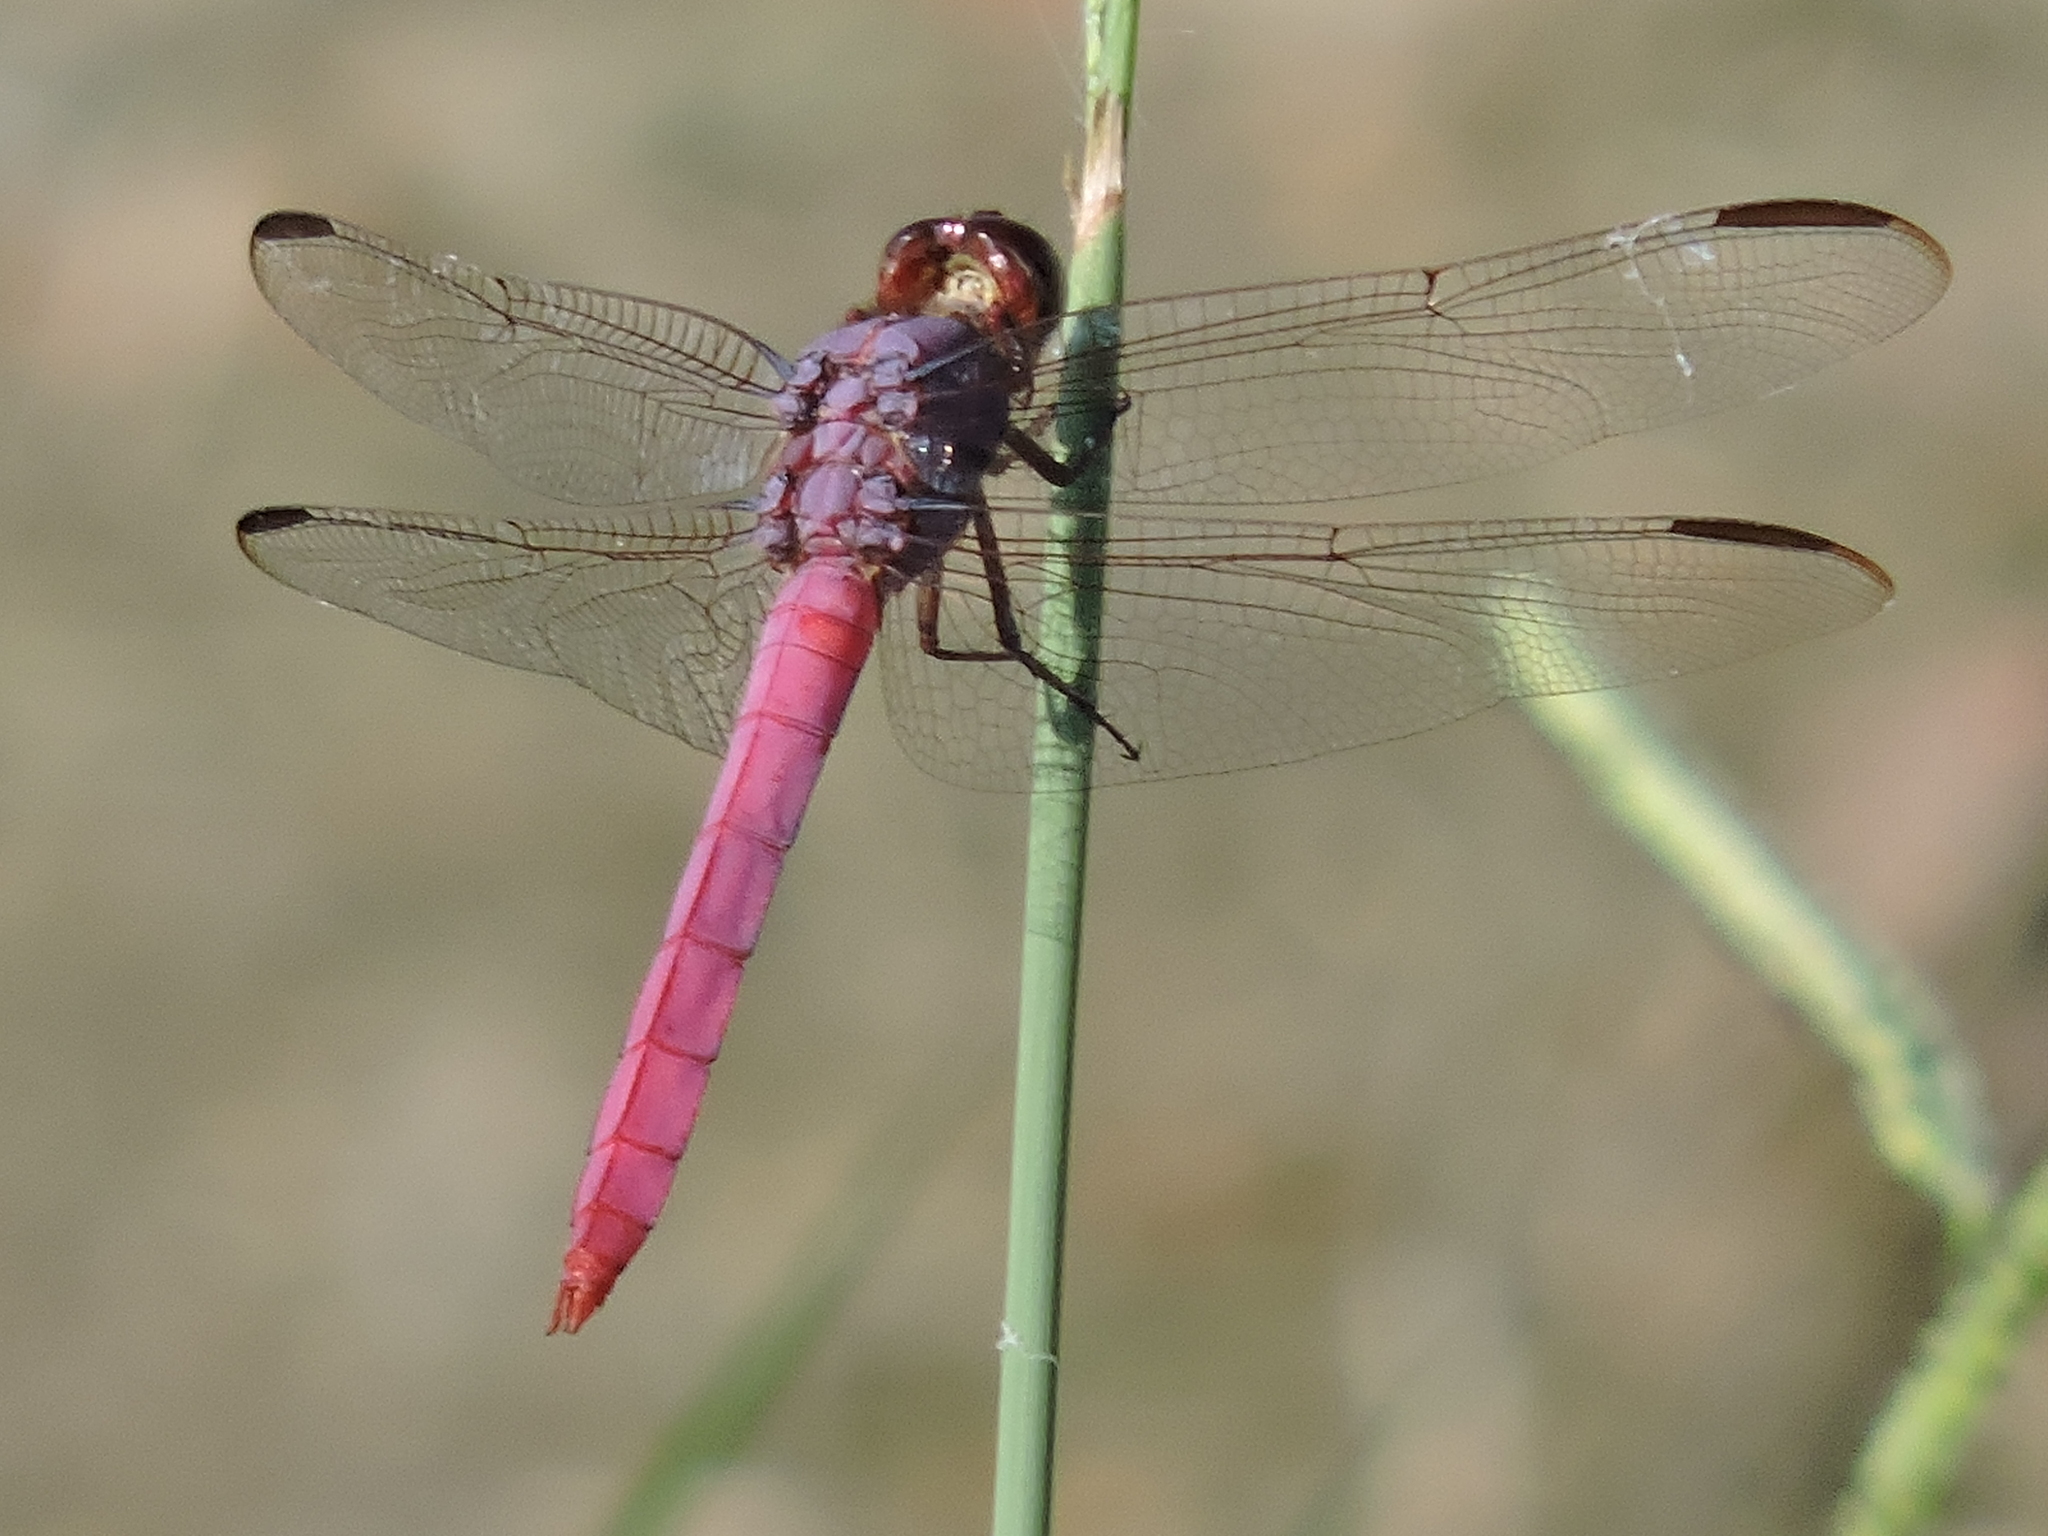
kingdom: Animalia
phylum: Arthropoda
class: Insecta
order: Odonata
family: Libellulidae
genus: Orthemis
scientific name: Orthemis ferruginea
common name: Roseate skimmer
